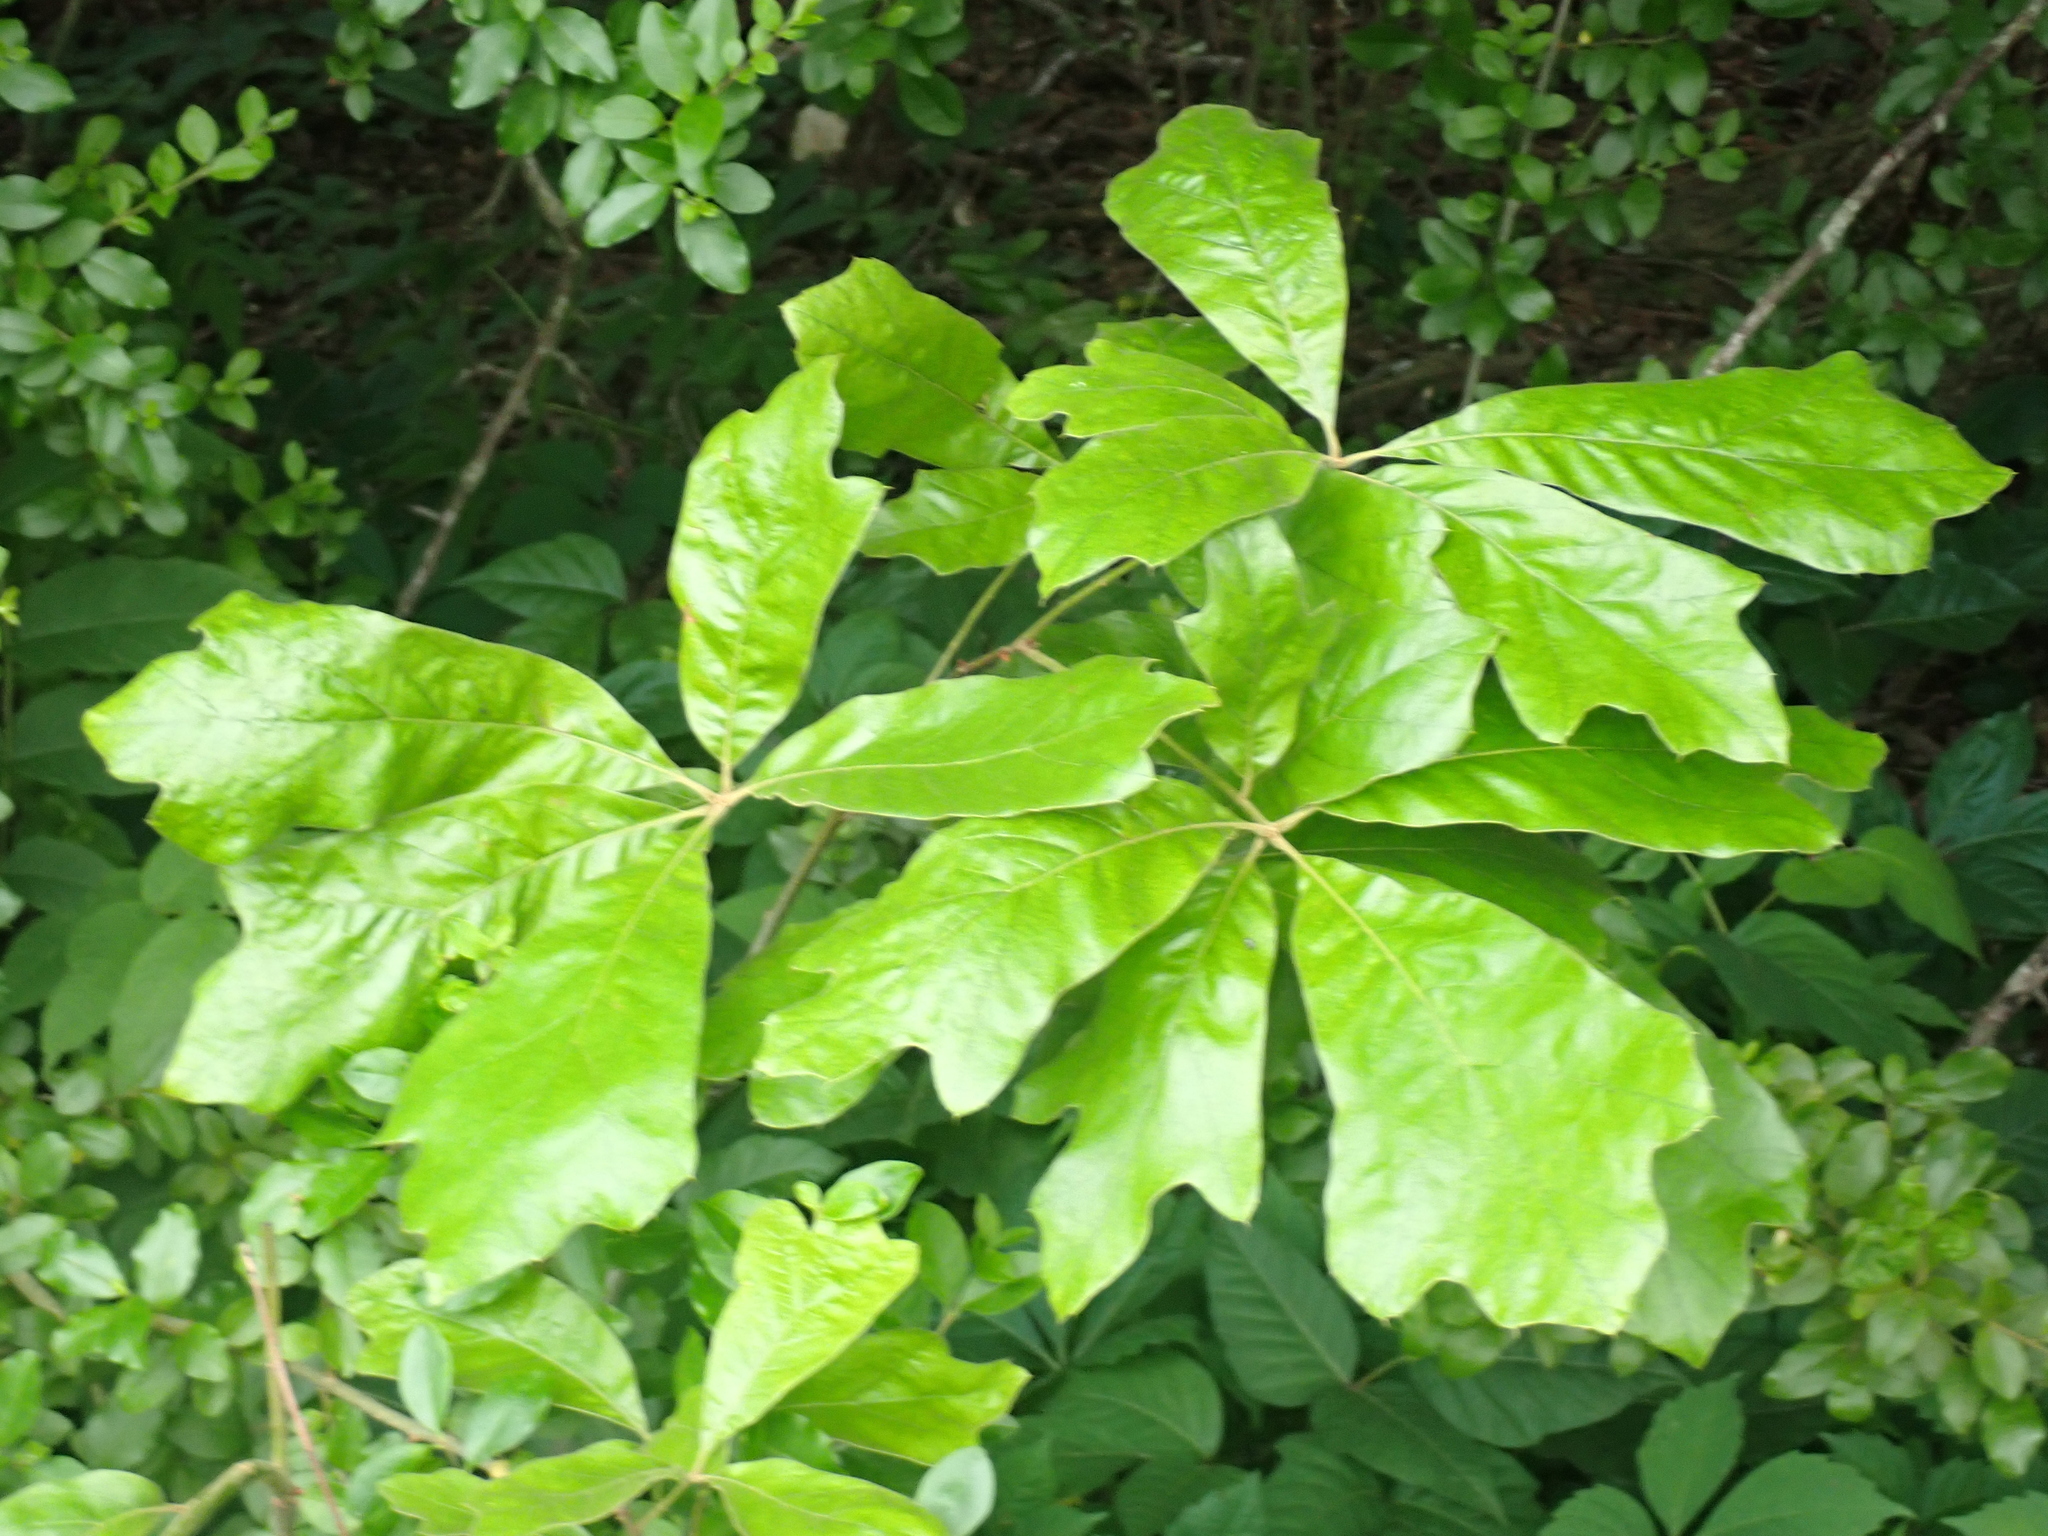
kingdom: Plantae
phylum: Tracheophyta
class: Magnoliopsida
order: Fagales
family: Fagaceae
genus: Quercus
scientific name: Quercus falcata
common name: Southern red oak
